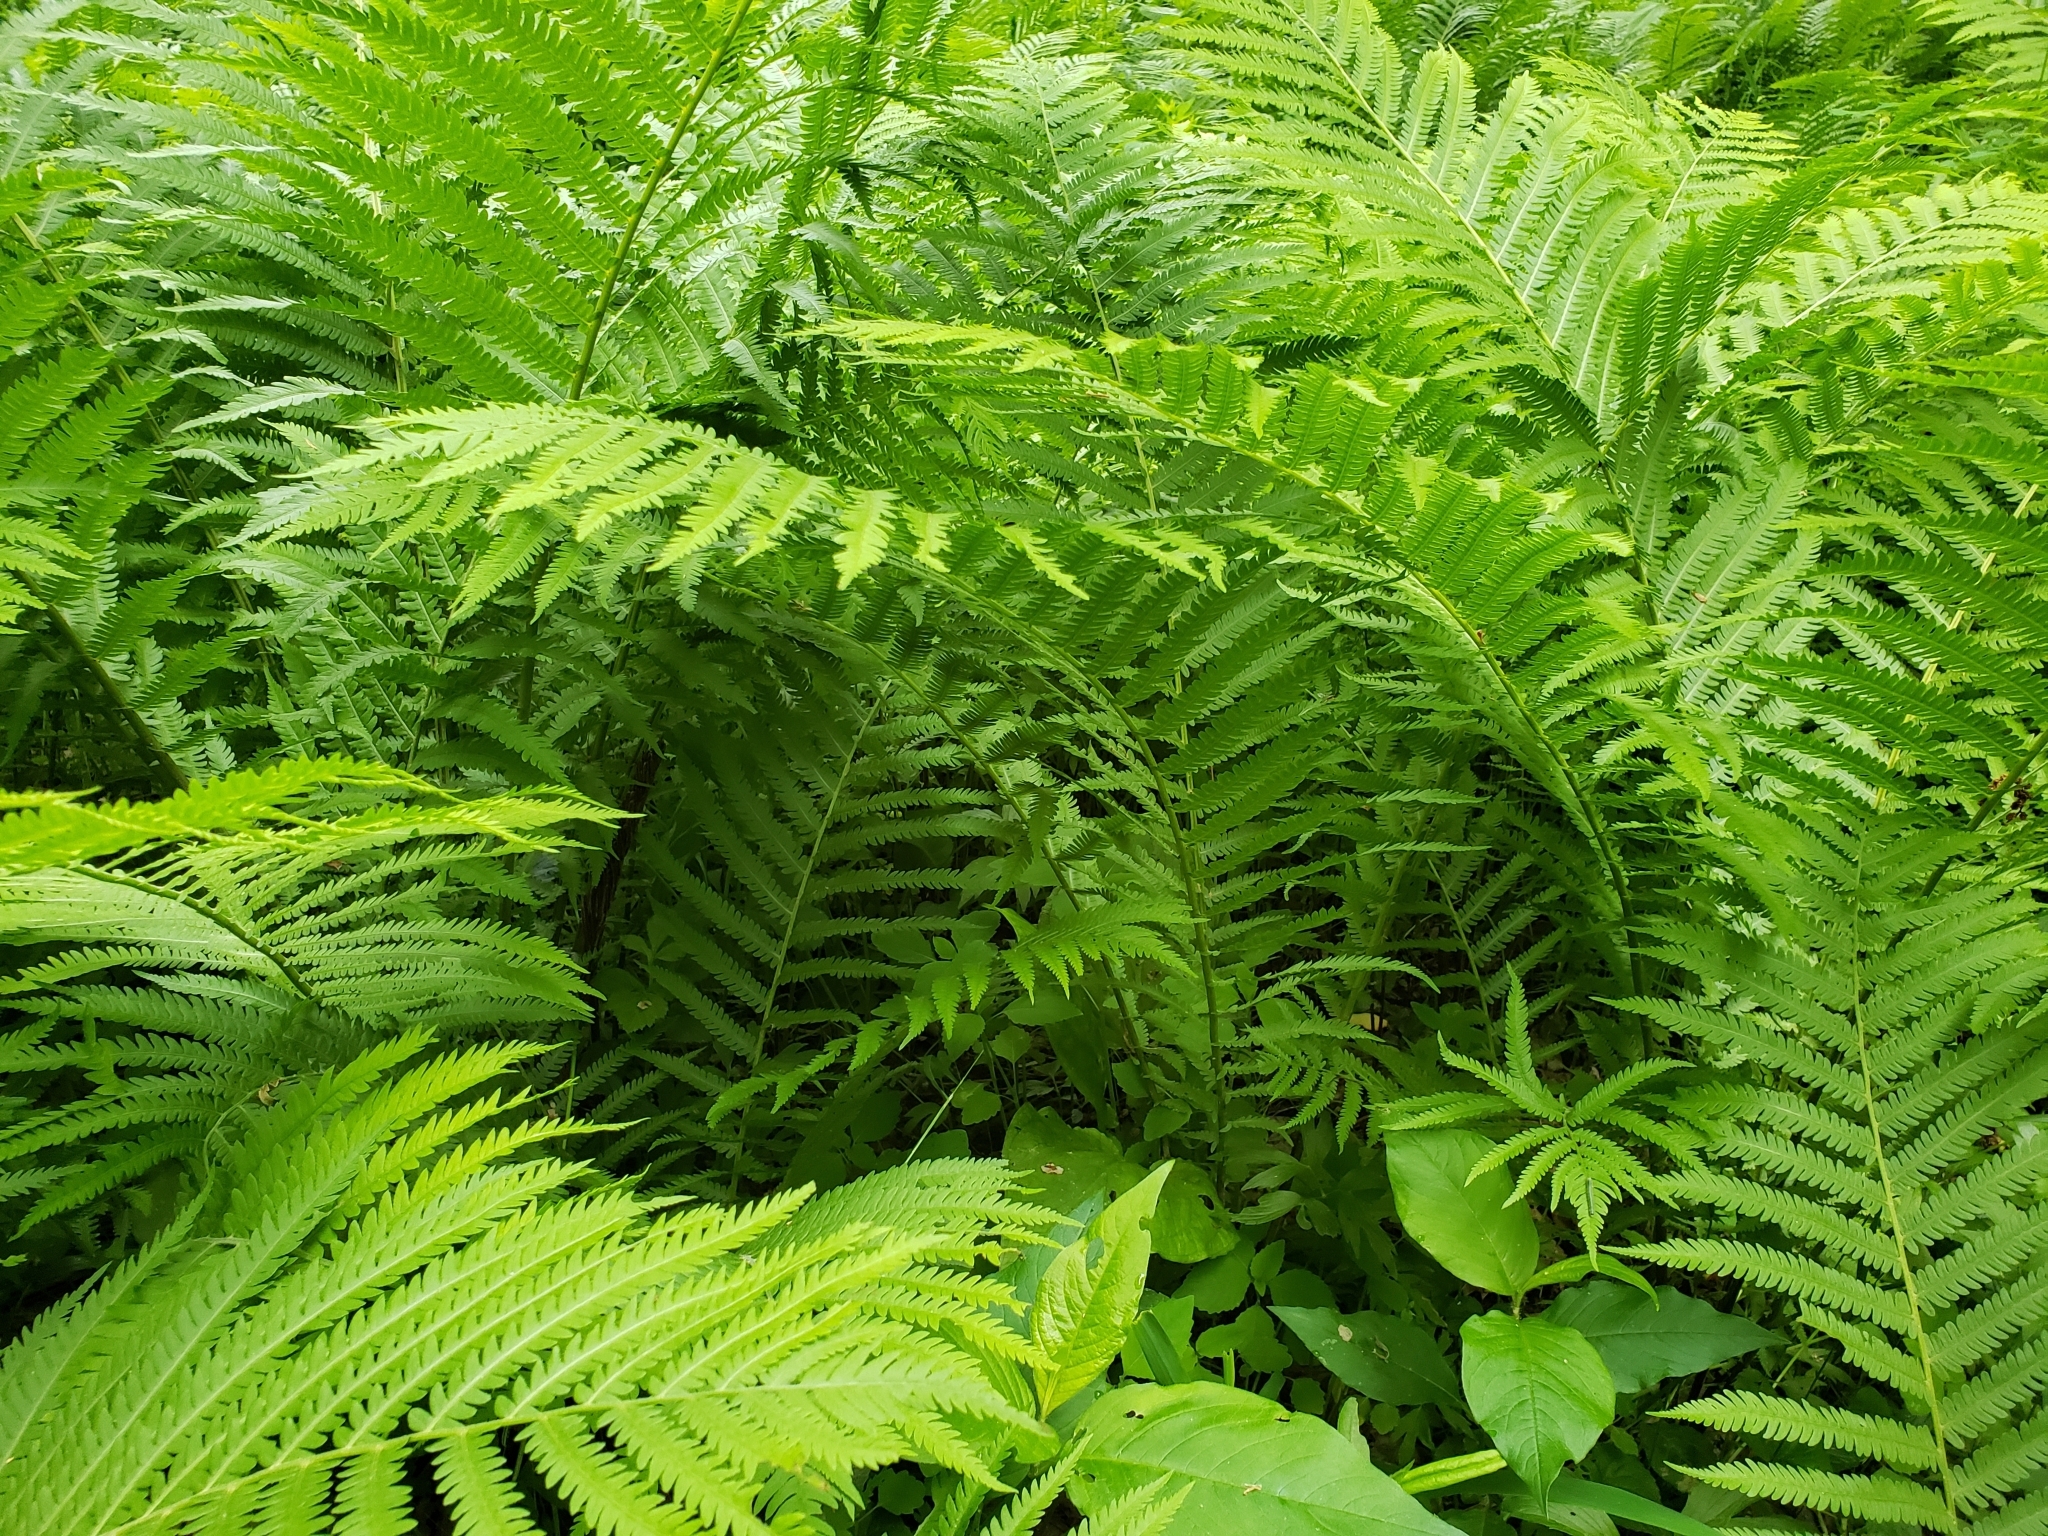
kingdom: Plantae
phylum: Tracheophyta
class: Polypodiopsida
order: Polypodiales
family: Onocleaceae
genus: Matteuccia
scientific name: Matteuccia struthiopteris
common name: Ostrich fern
